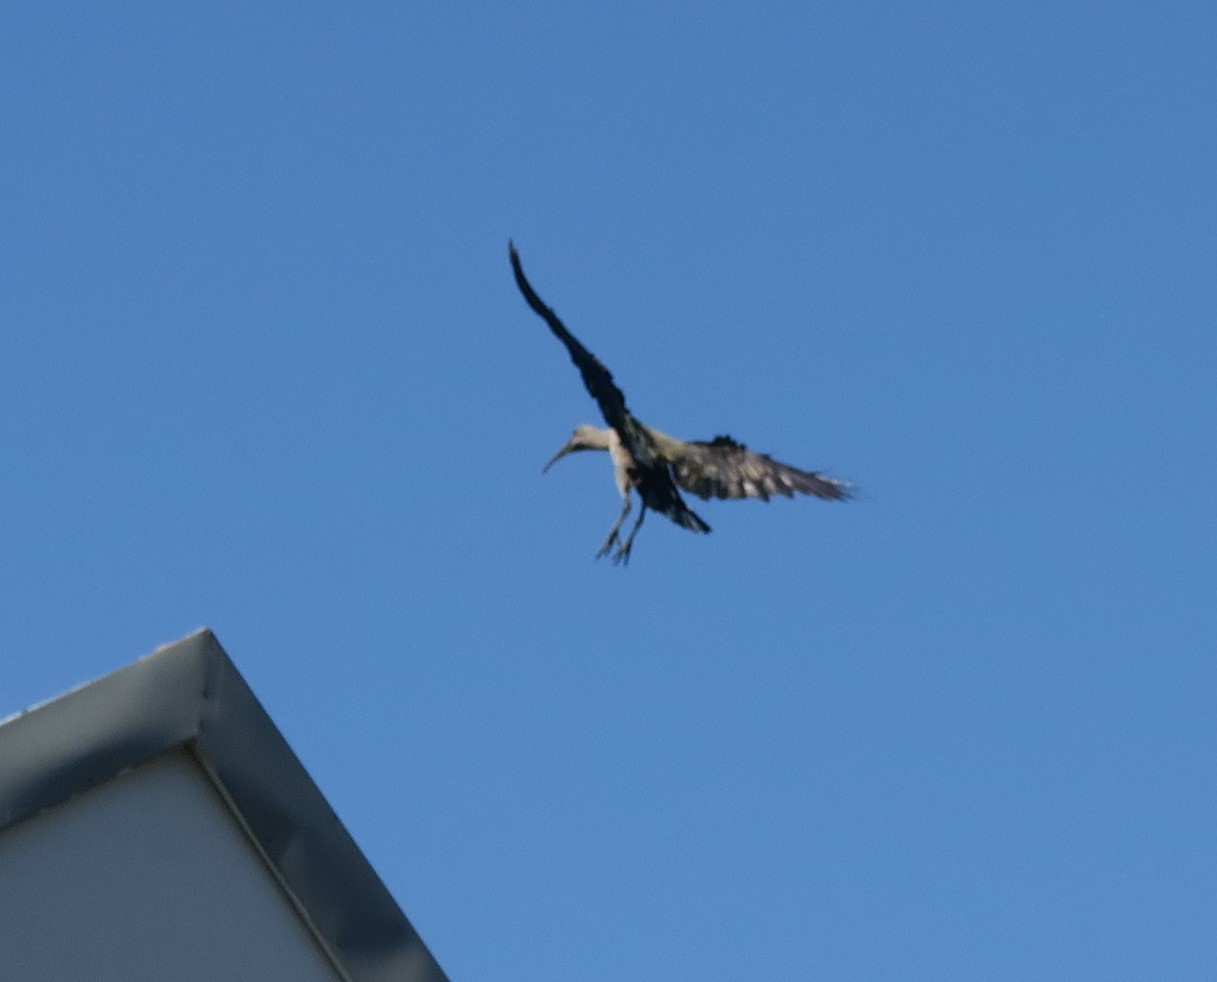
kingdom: Animalia
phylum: Chordata
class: Aves
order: Pelecaniformes
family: Threskiornithidae
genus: Bostrychia
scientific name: Bostrychia hagedash
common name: Hadada ibis
